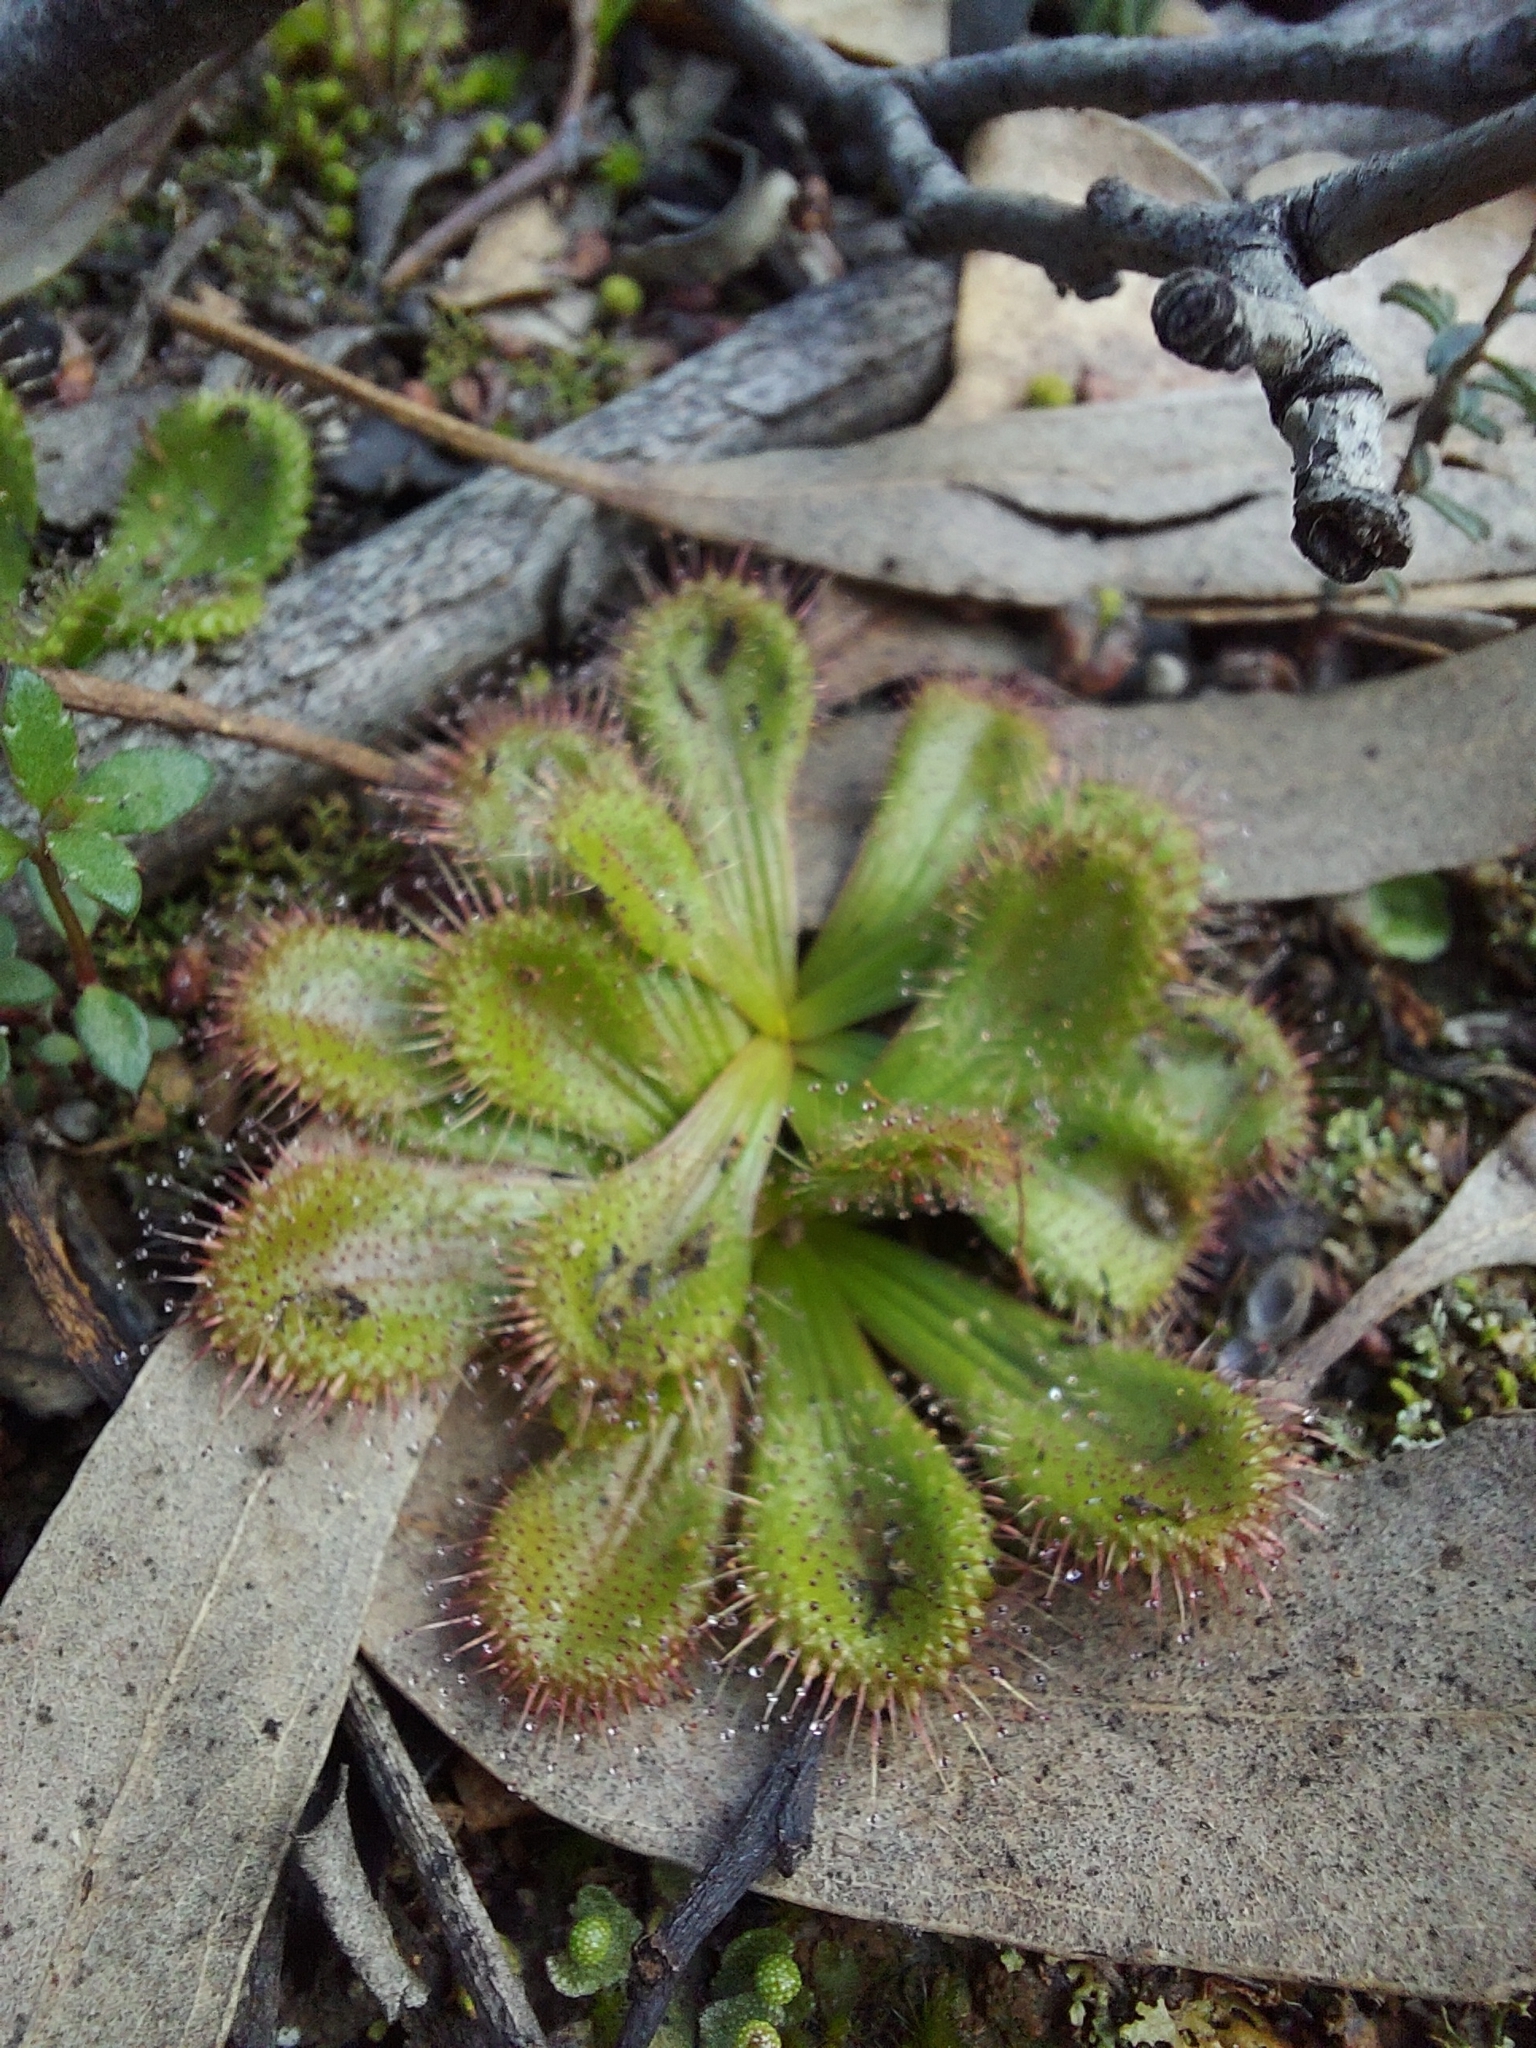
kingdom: Plantae
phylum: Tracheophyta
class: Magnoliopsida
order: Caryophyllales
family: Droseraceae
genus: Drosera
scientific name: Drosera aberrans
